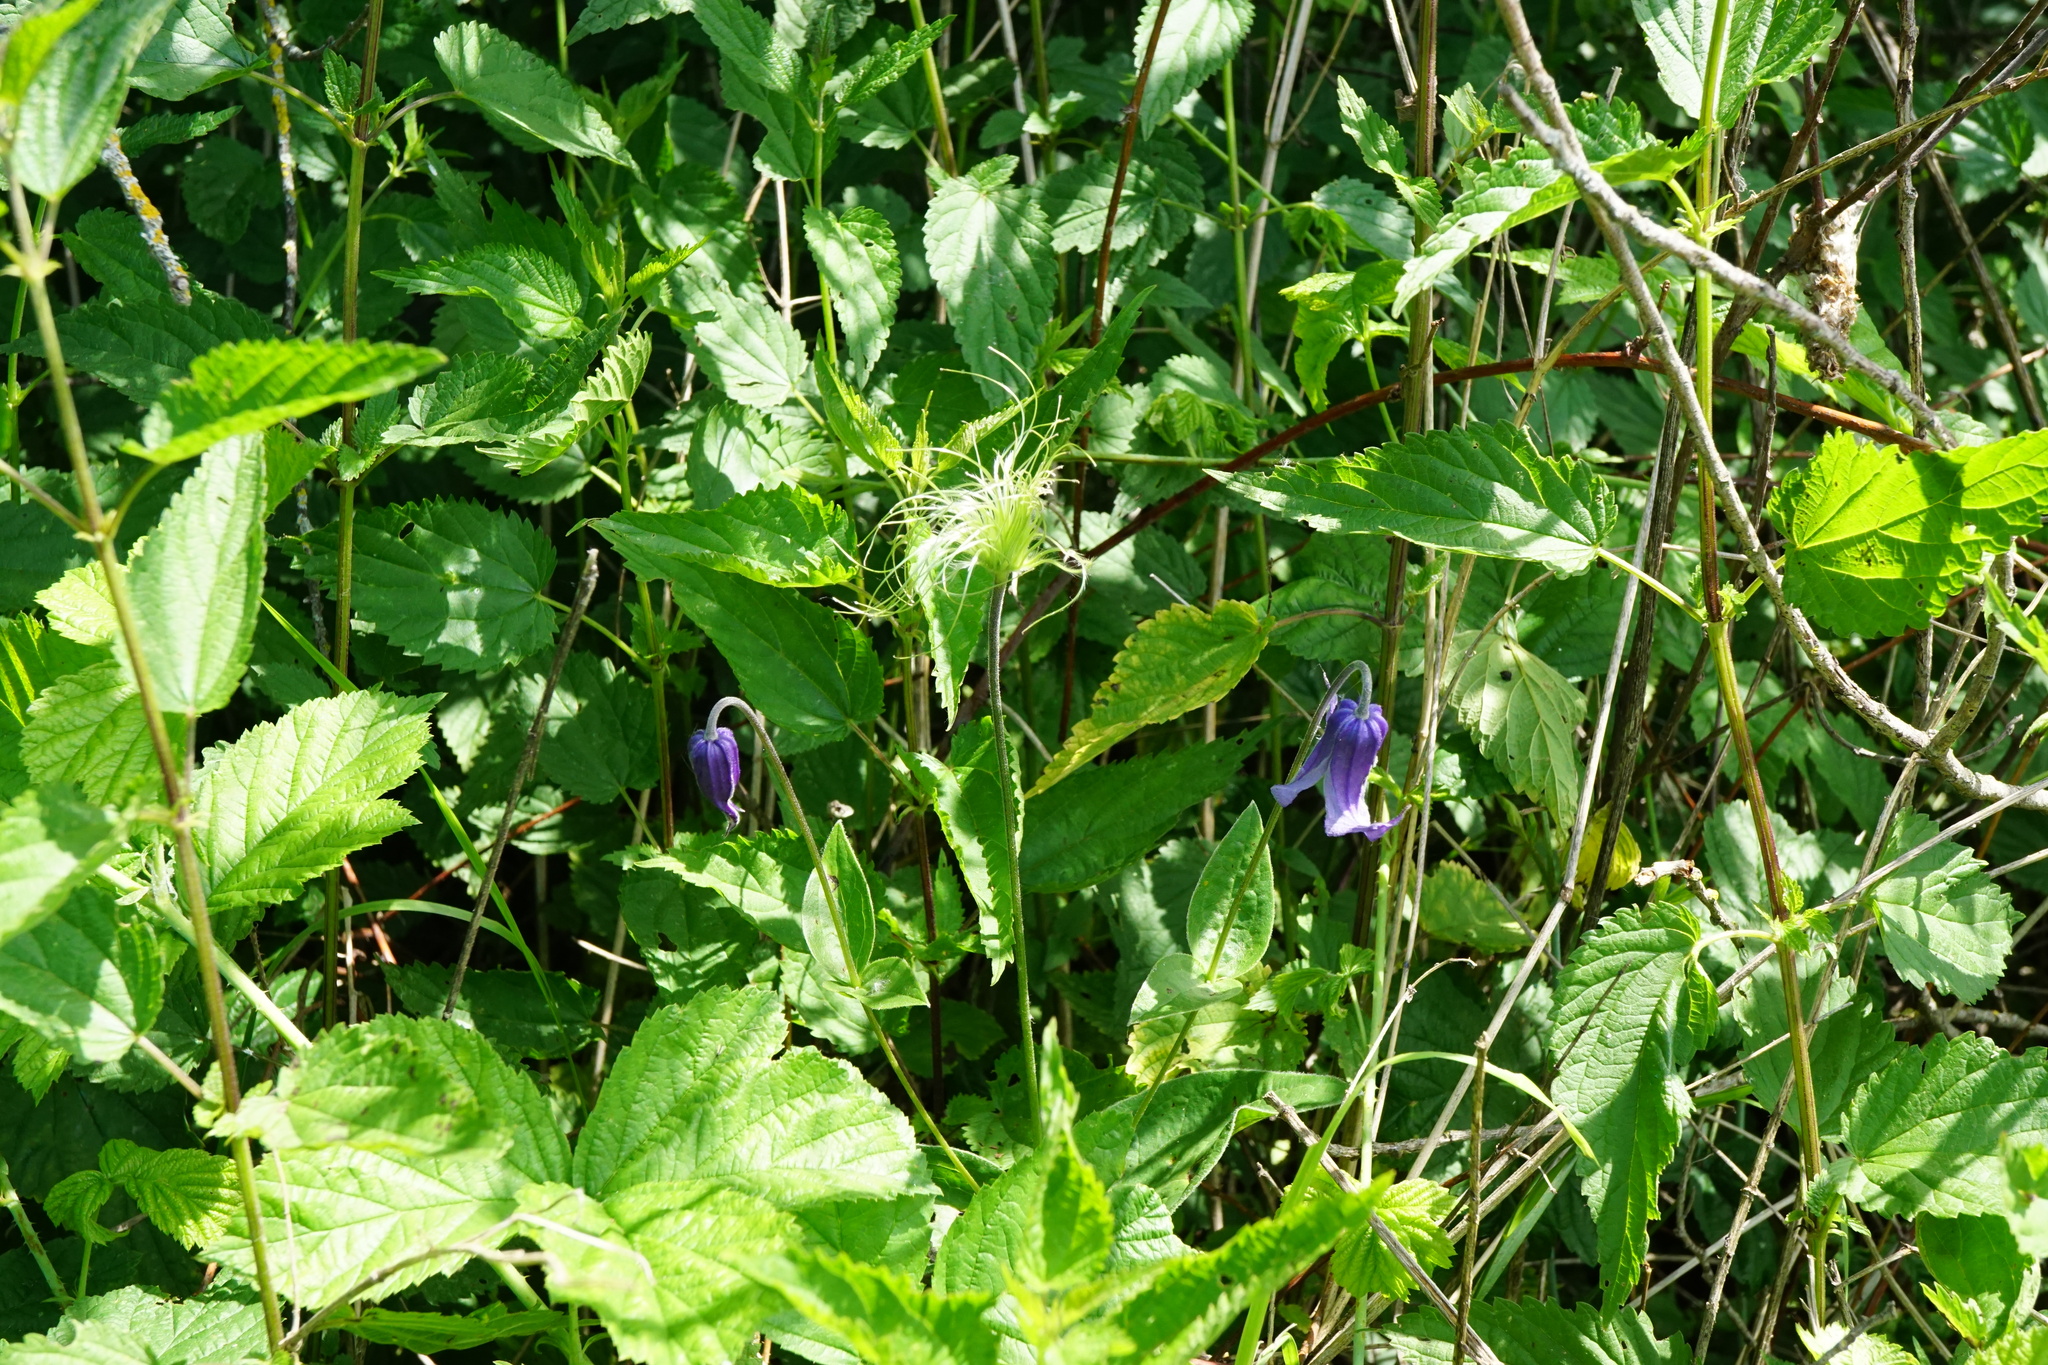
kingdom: Plantae
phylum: Tracheophyta
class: Magnoliopsida
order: Ranunculales
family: Ranunculaceae
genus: Clematis
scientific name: Clematis integrifolia
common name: Solitary clematis
